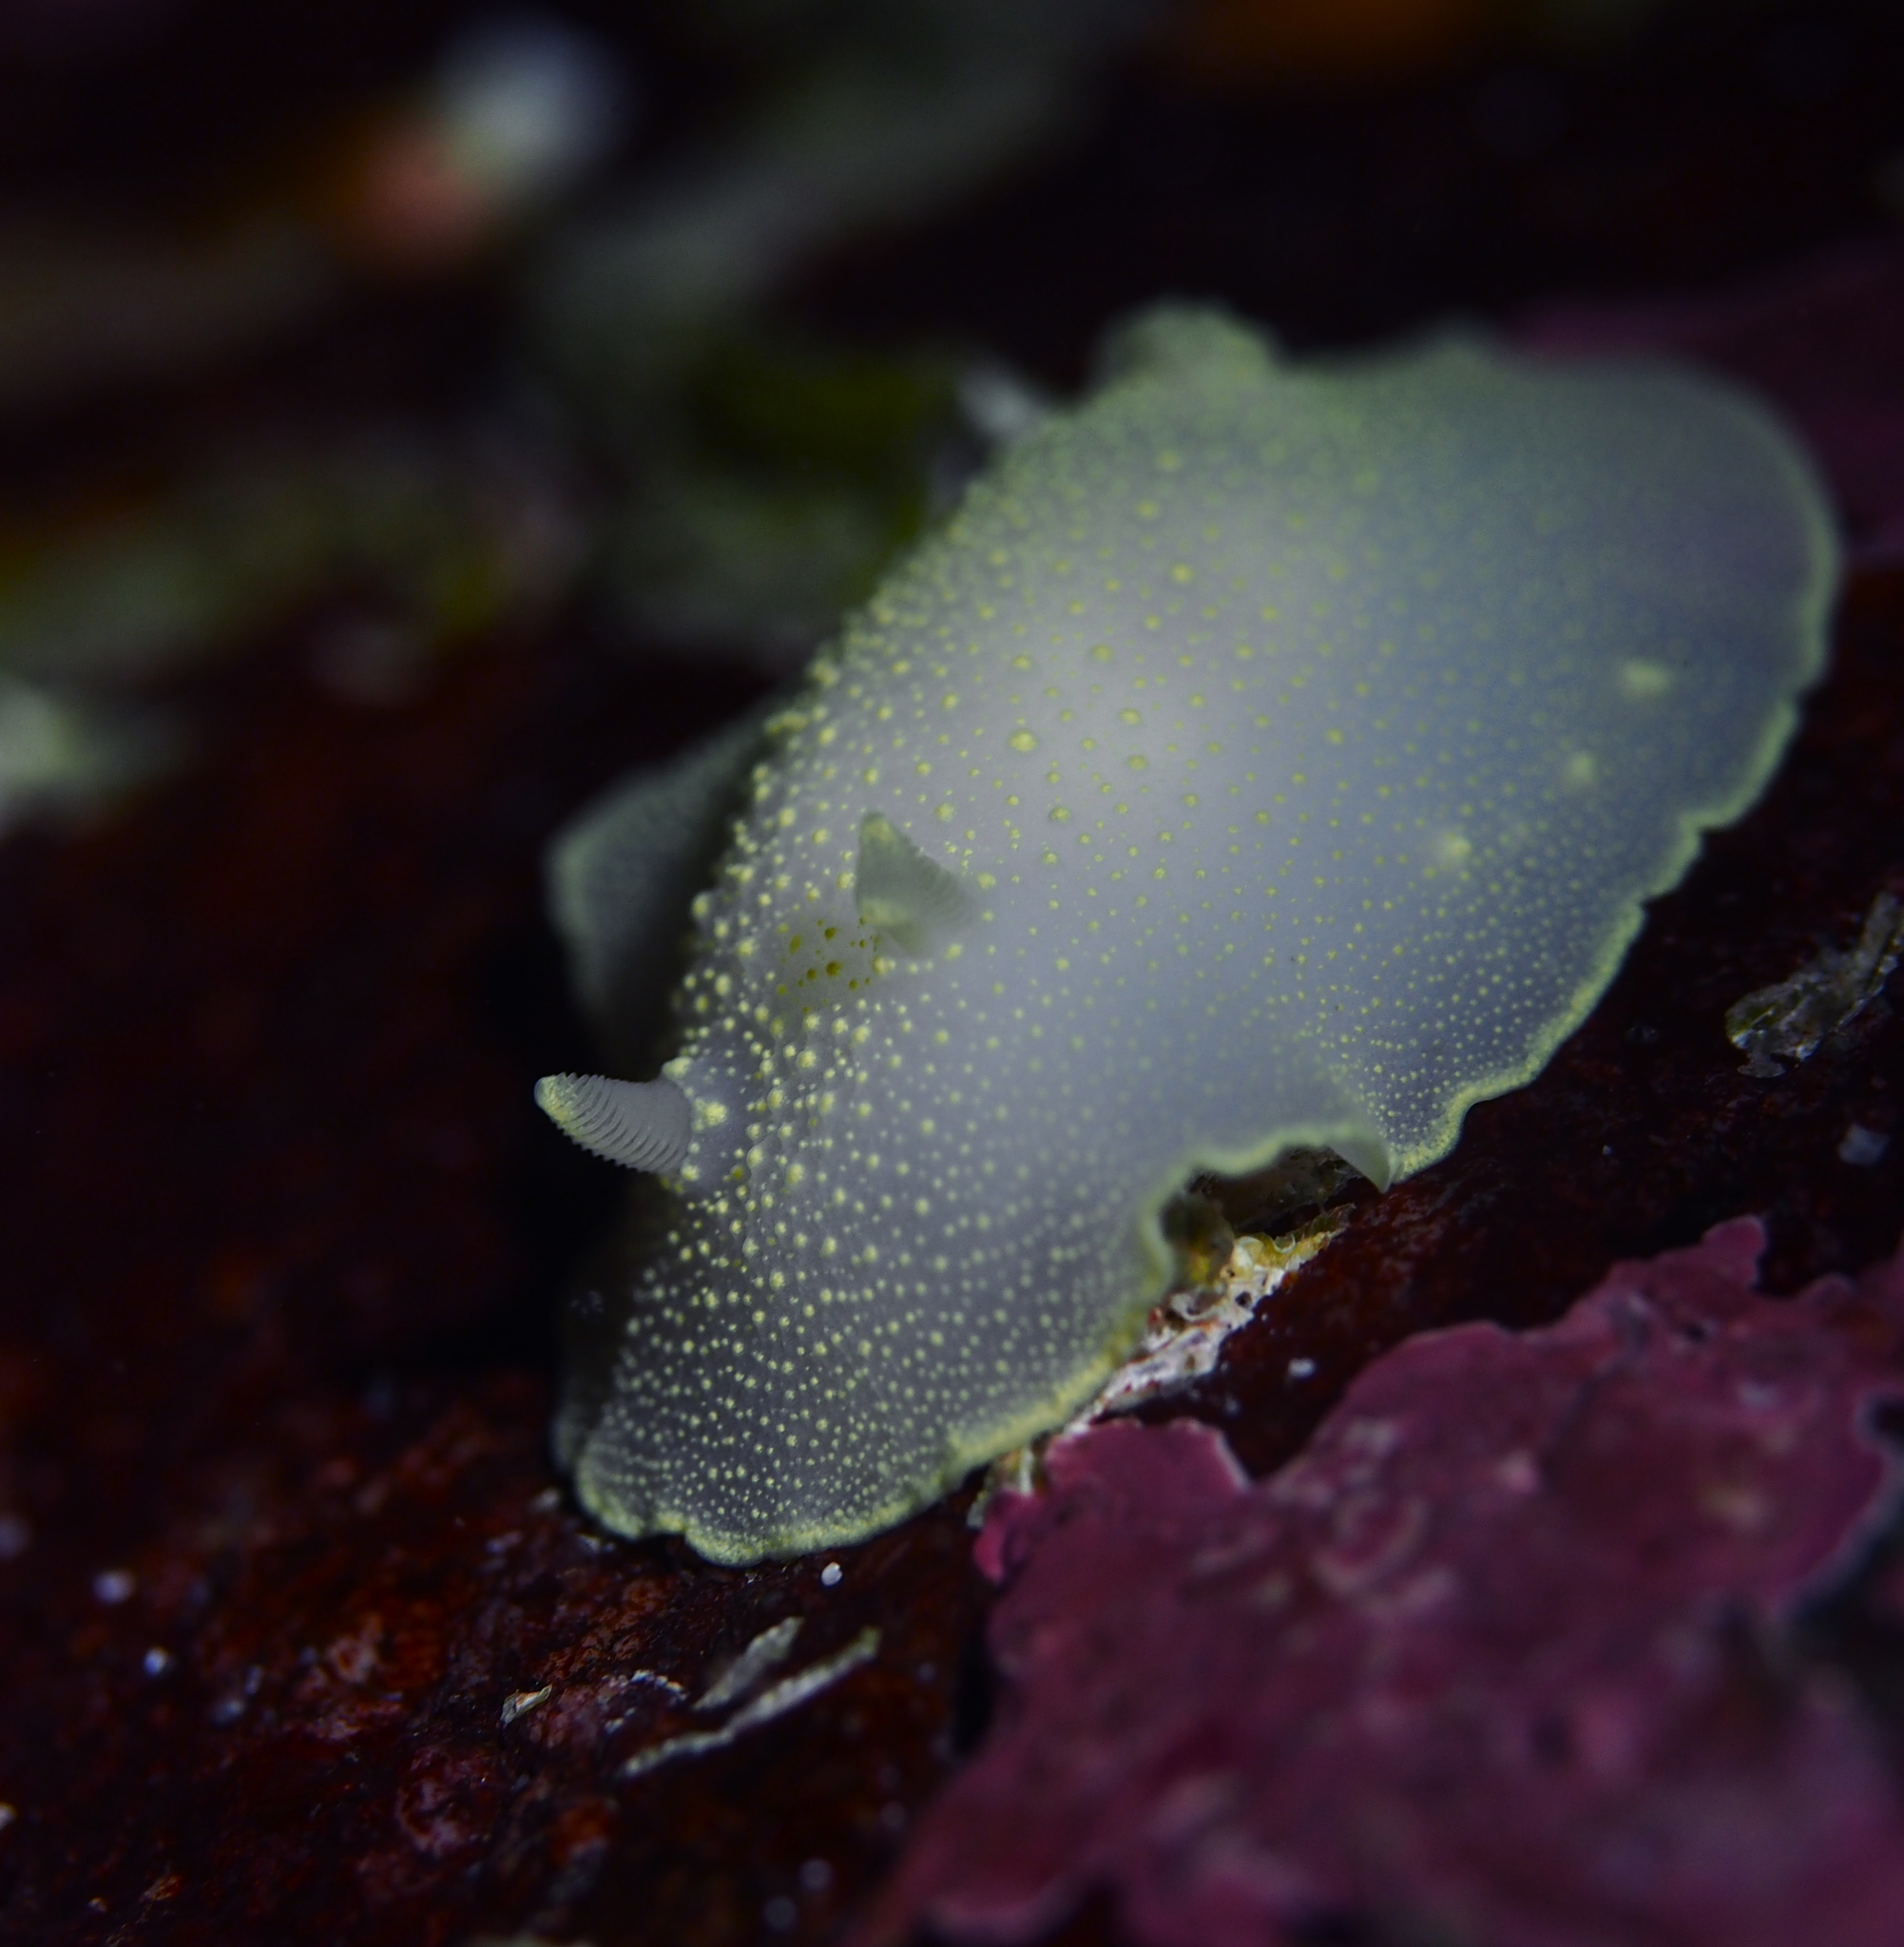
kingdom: Animalia
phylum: Mollusca
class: Gastropoda
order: Nudibranchia
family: Cadlinidae
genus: Cadlina
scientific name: Cadlina laevis
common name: White atlantic cadlina
